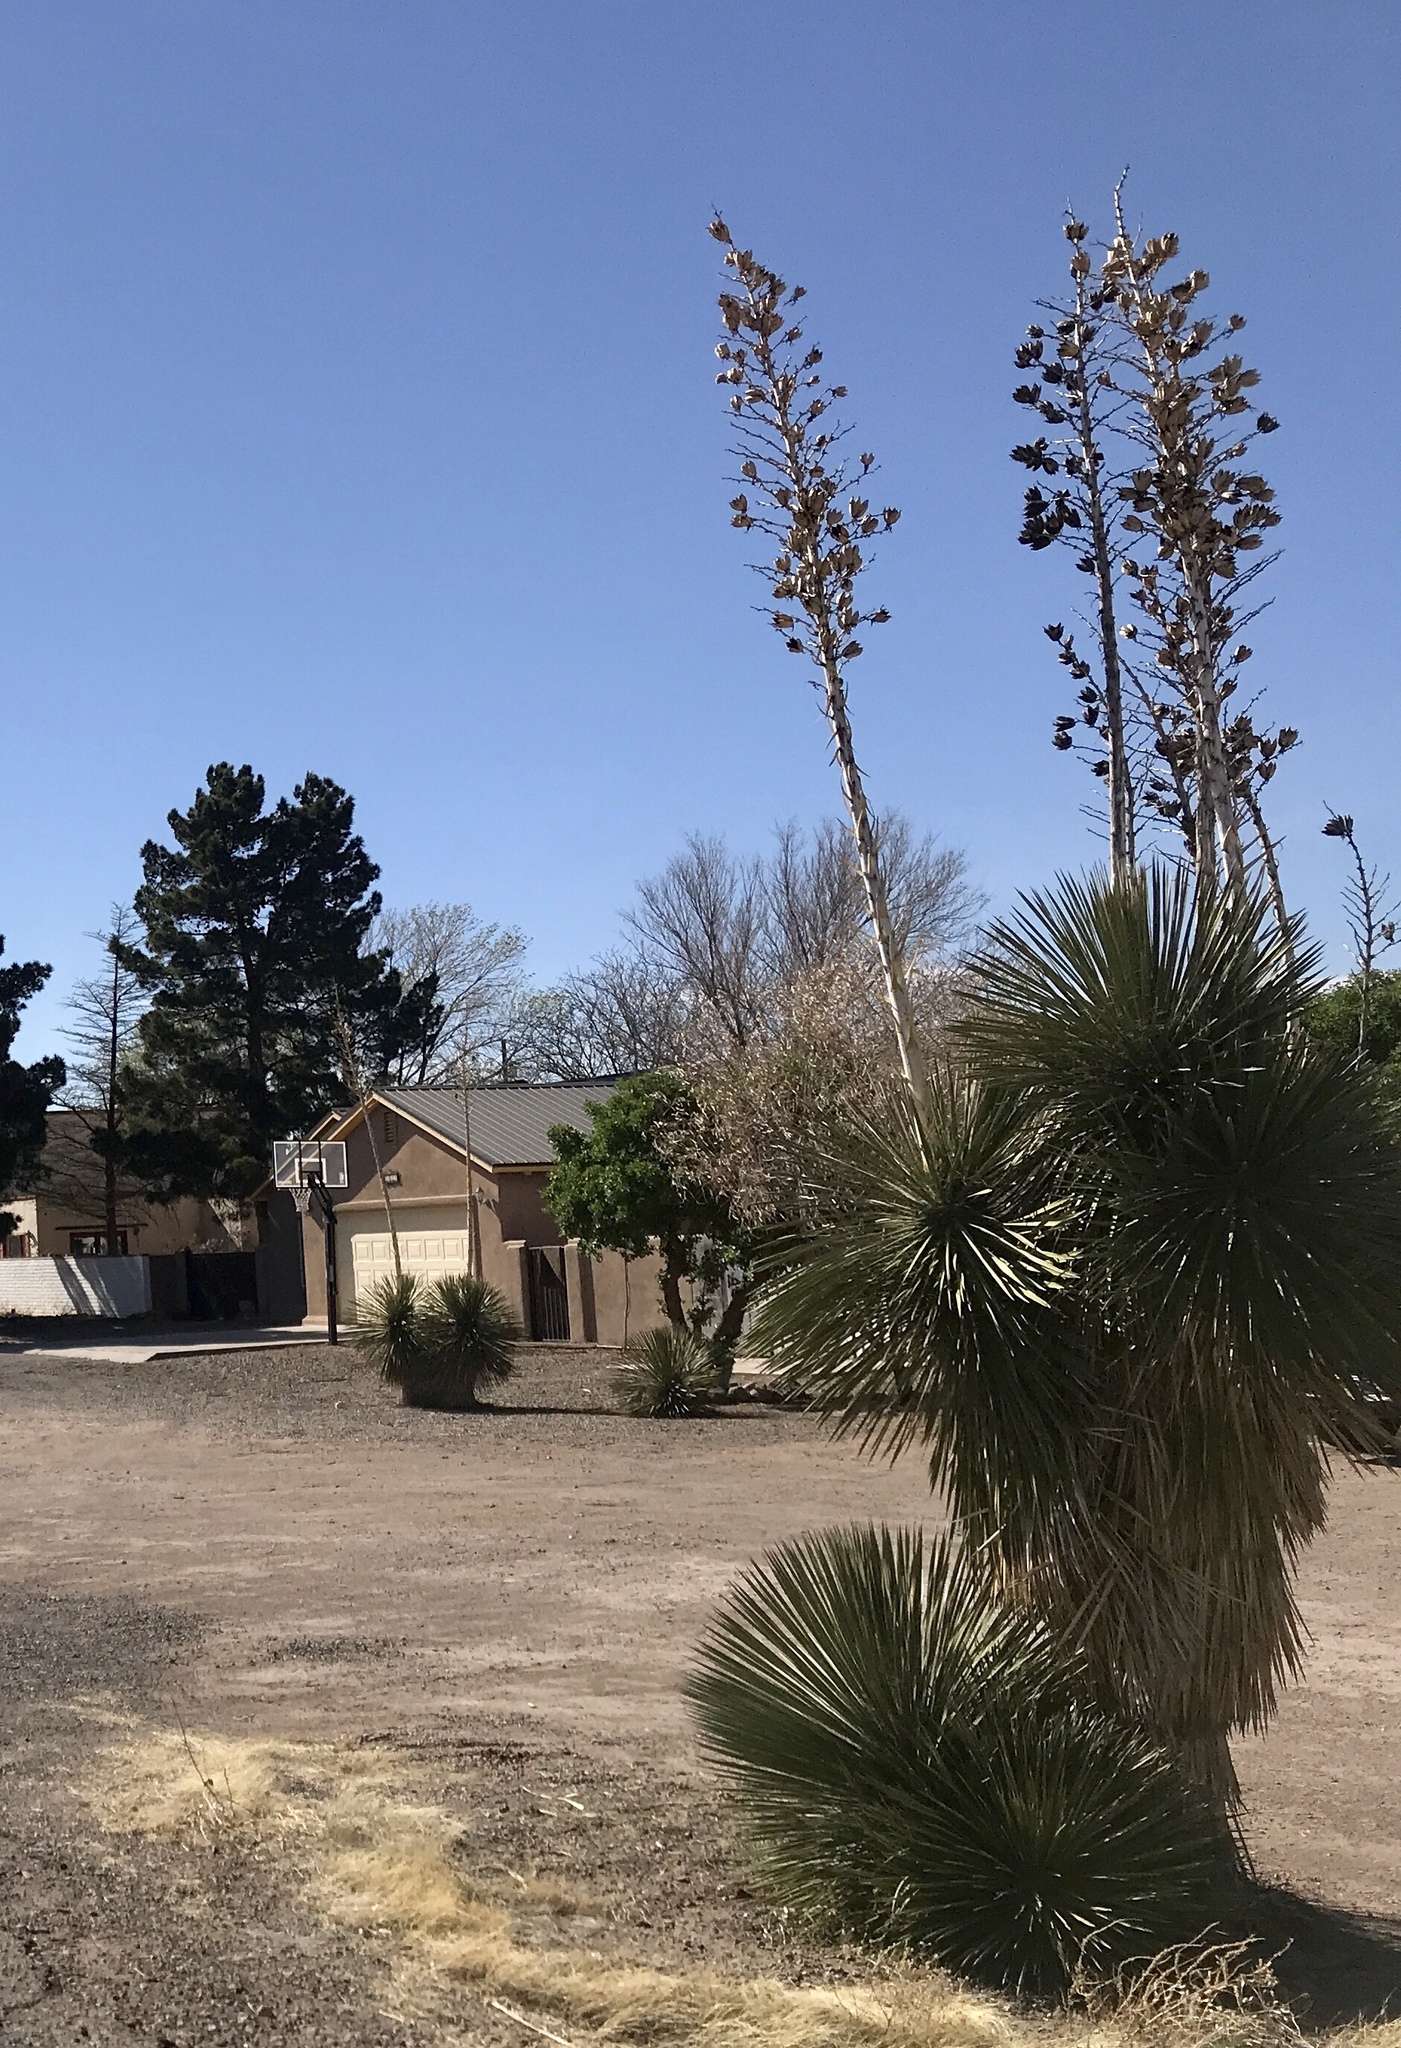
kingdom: Plantae
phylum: Tracheophyta
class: Liliopsida
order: Asparagales
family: Asparagaceae
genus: Yucca
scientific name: Yucca elata
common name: Palmella
